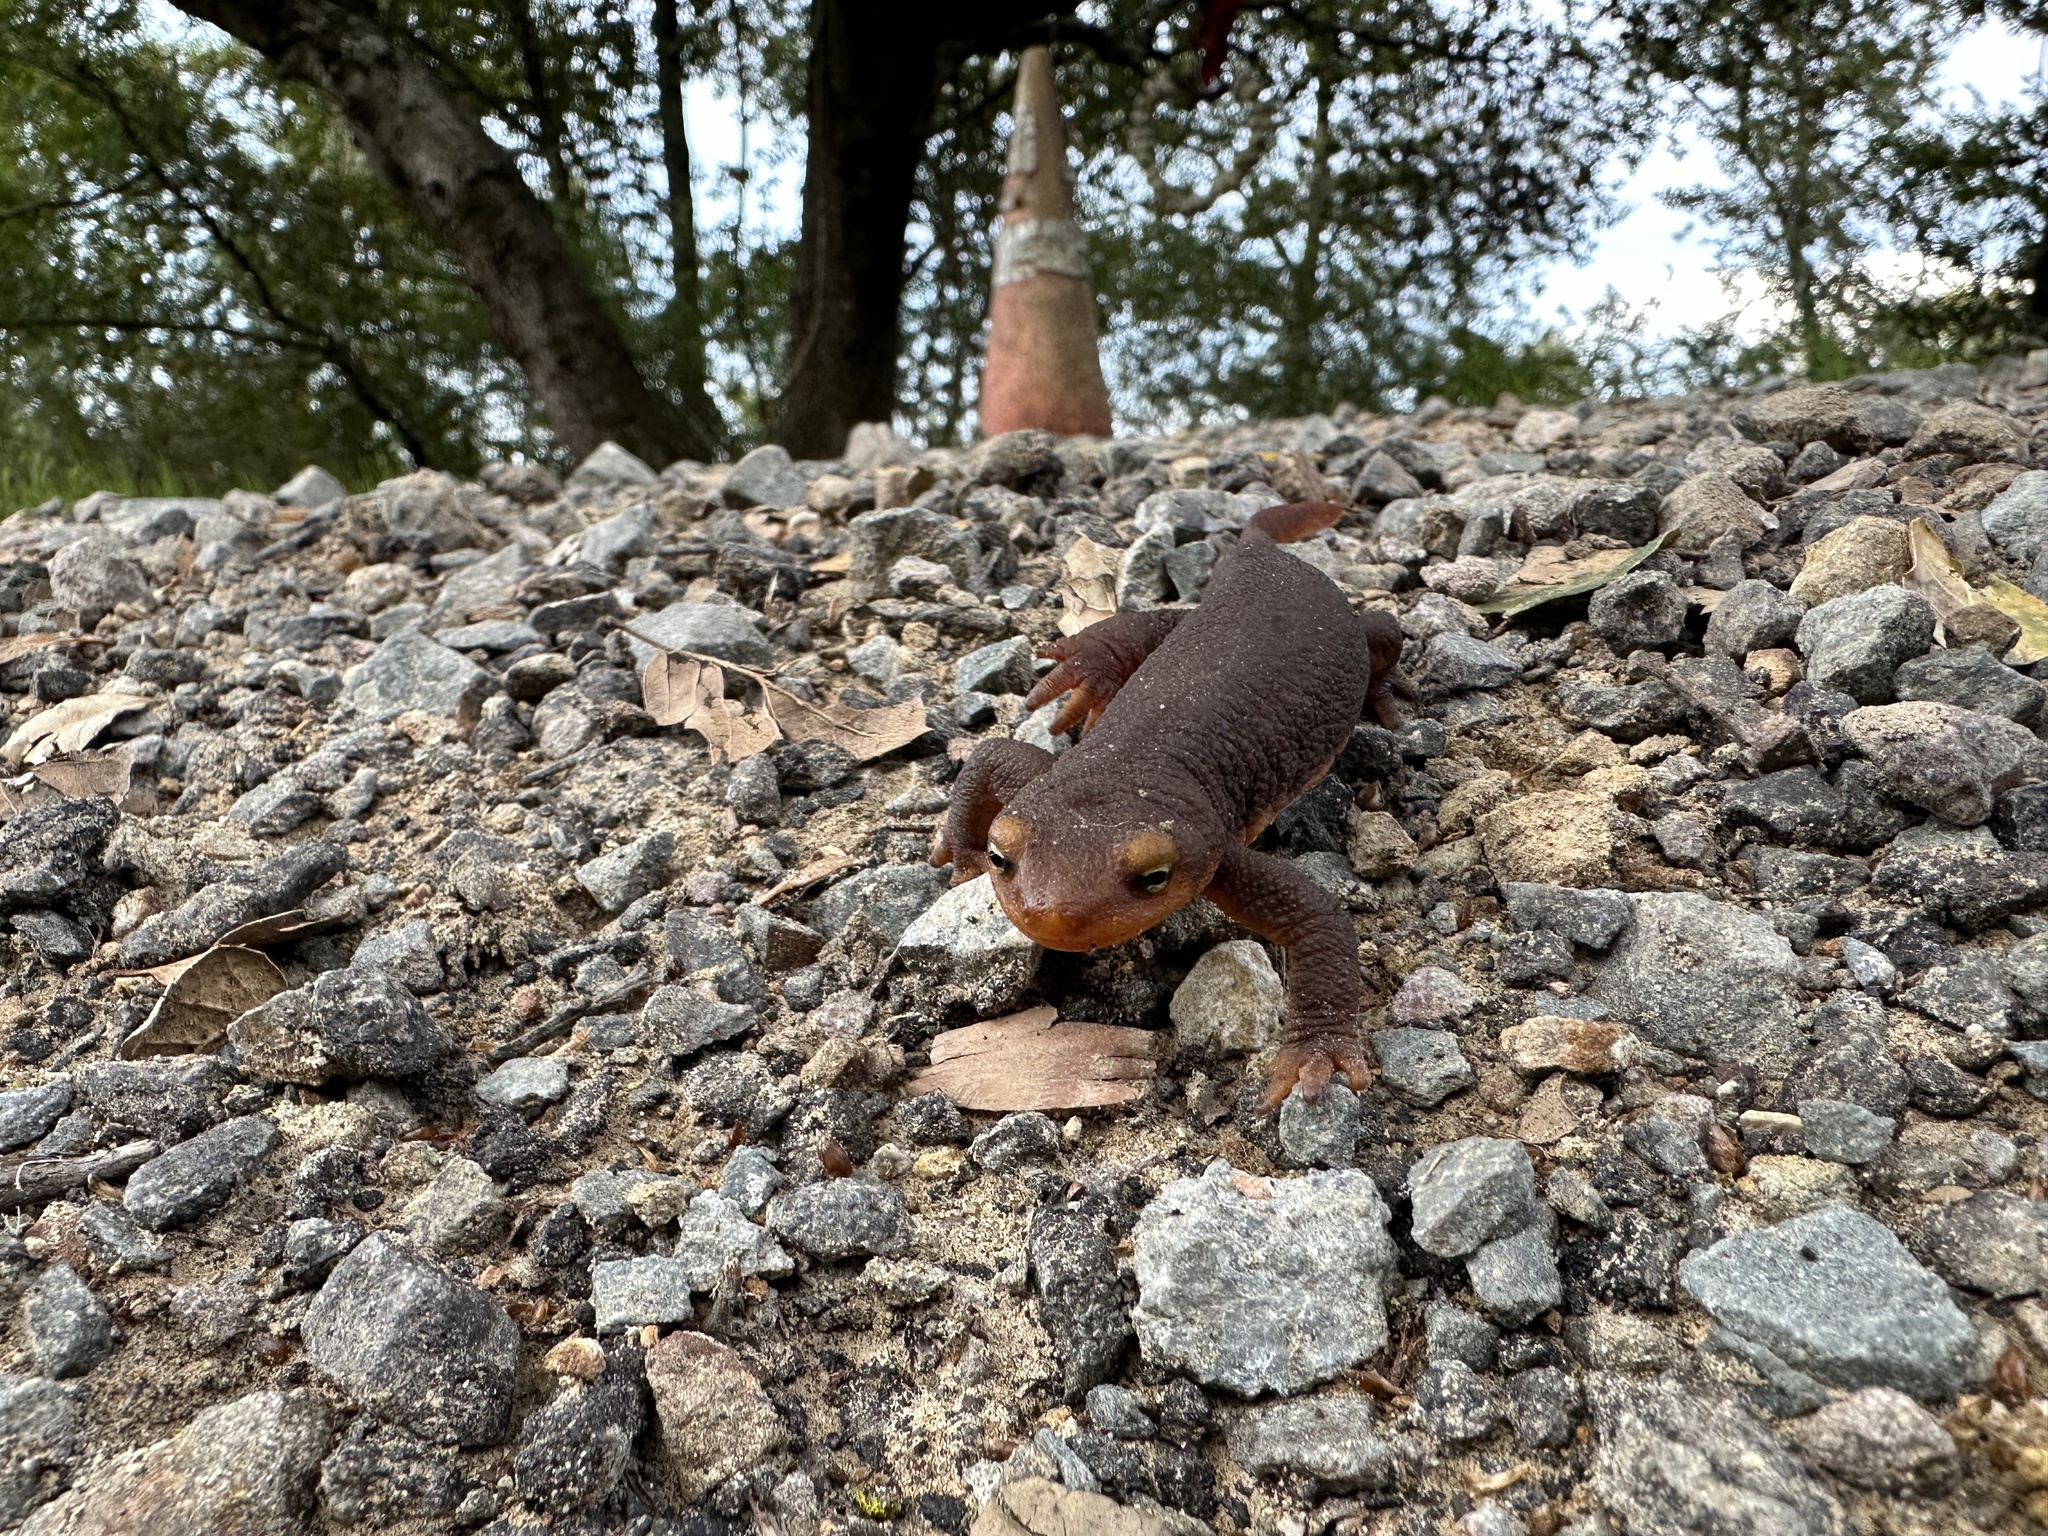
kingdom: Animalia
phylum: Chordata
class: Amphibia
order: Caudata
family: Salamandridae
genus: Taricha
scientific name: Taricha torosa
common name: California newt
